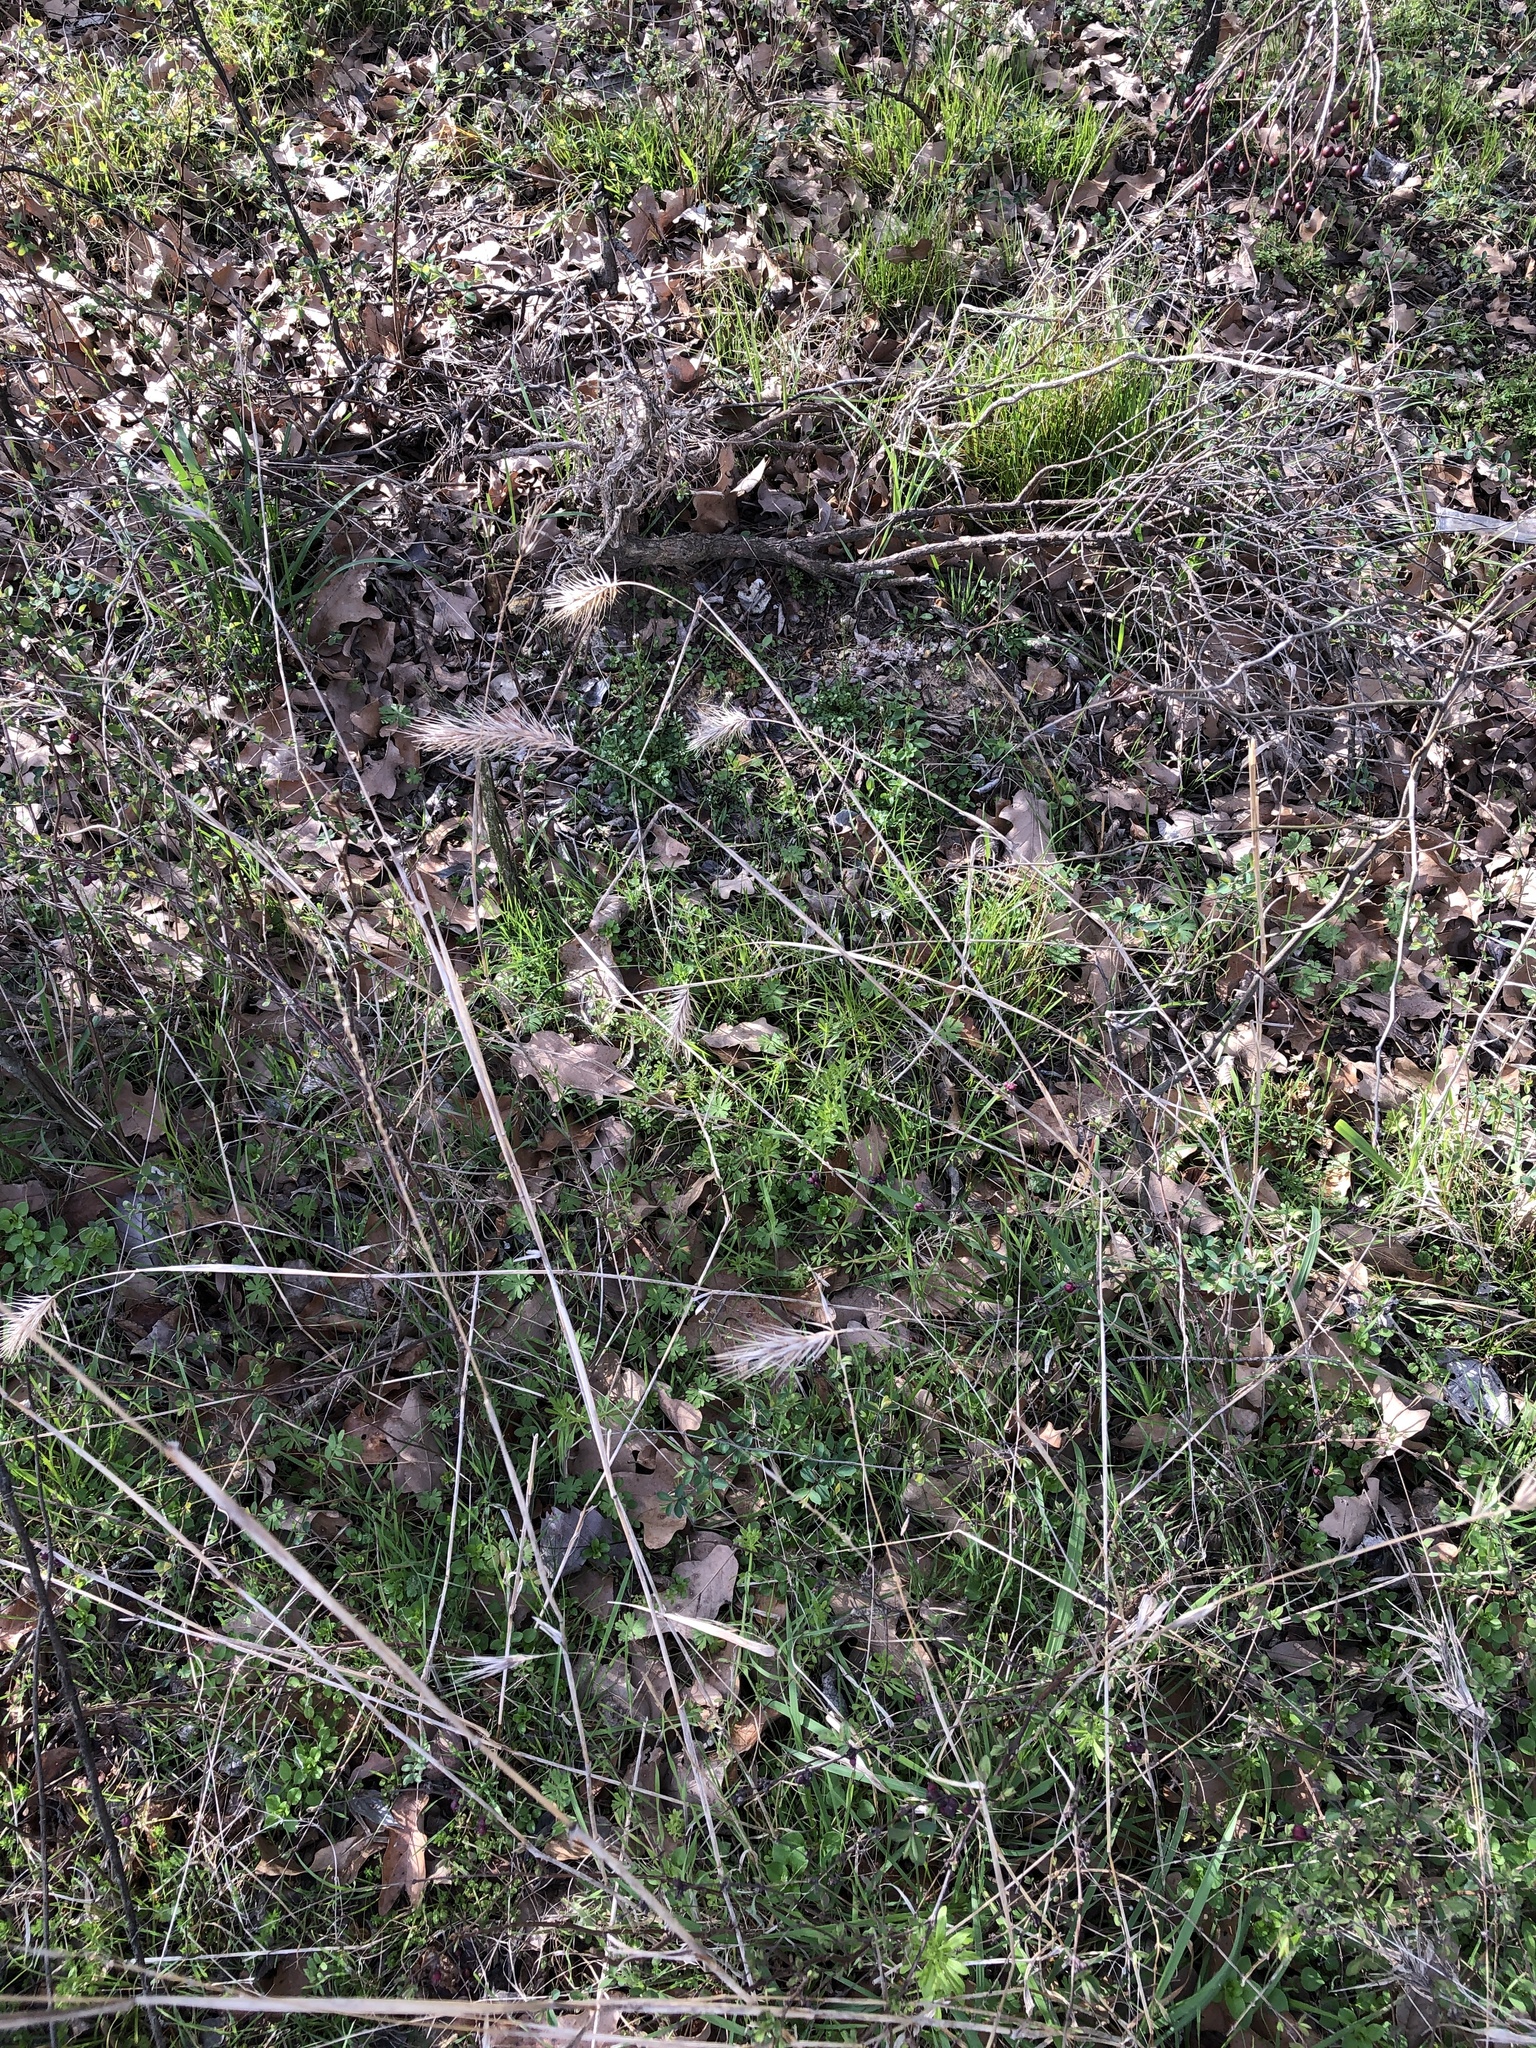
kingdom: Plantae
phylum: Tracheophyta
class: Liliopsida
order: Poales
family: Poaceae
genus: Elymus
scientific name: Elymus virginicus
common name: Common eastern wildrye
